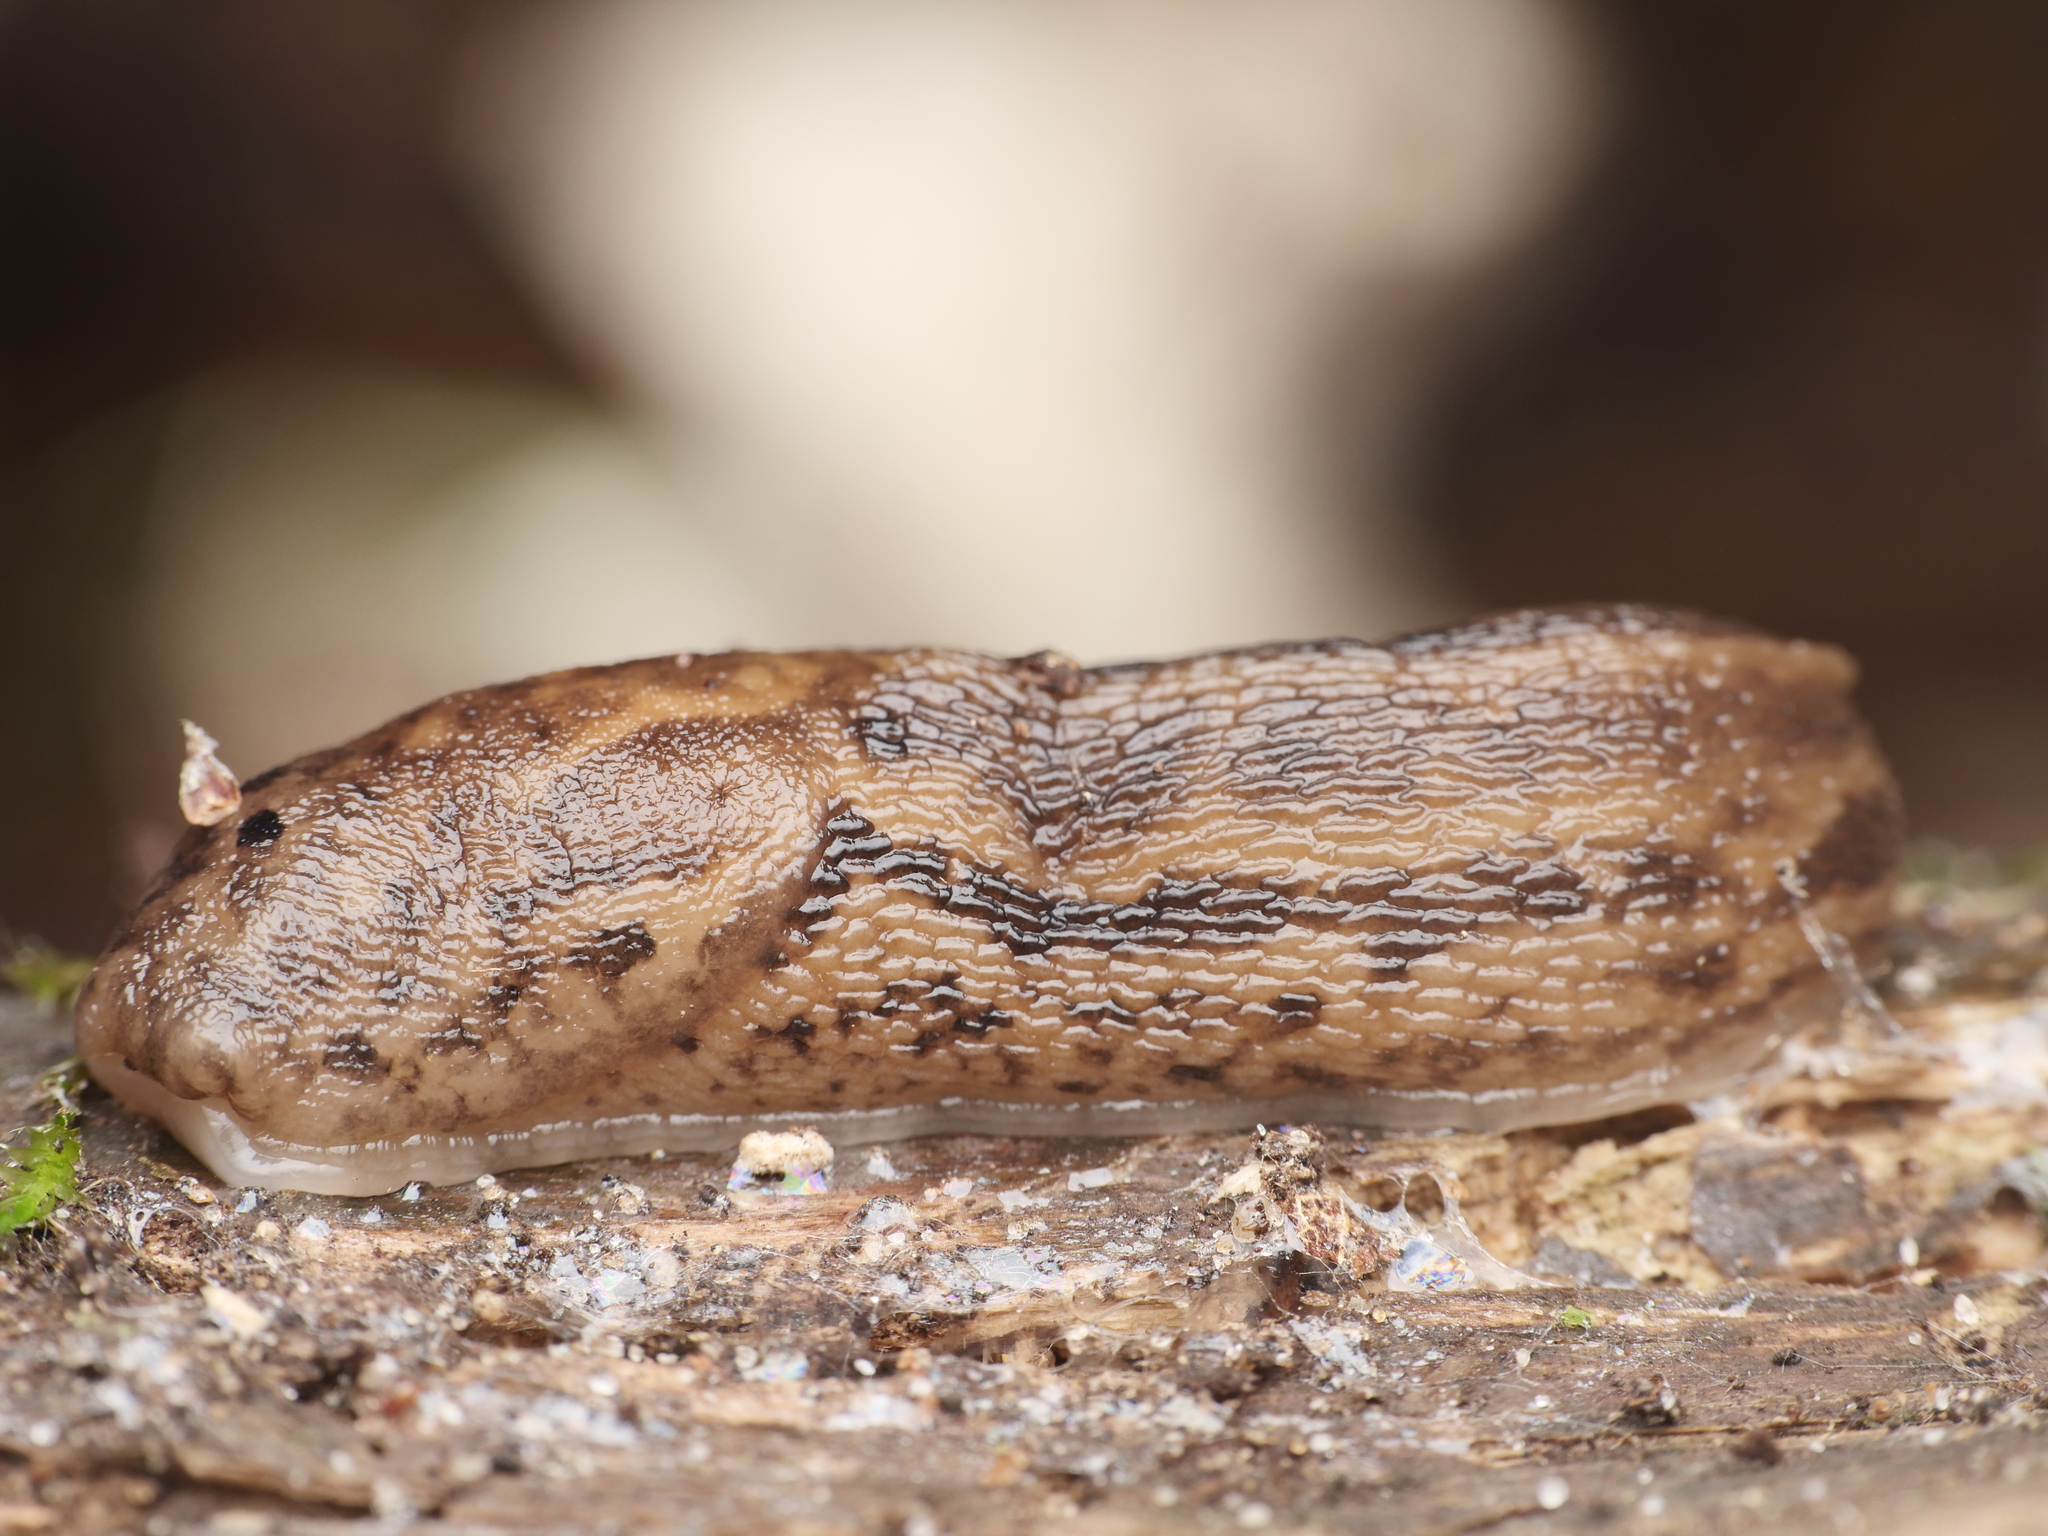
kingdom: Animalia
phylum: Mollusca
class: Gastropoda
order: Stylommatophora
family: Limacidae
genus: Limax
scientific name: Limax maximus
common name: Great grey slug
